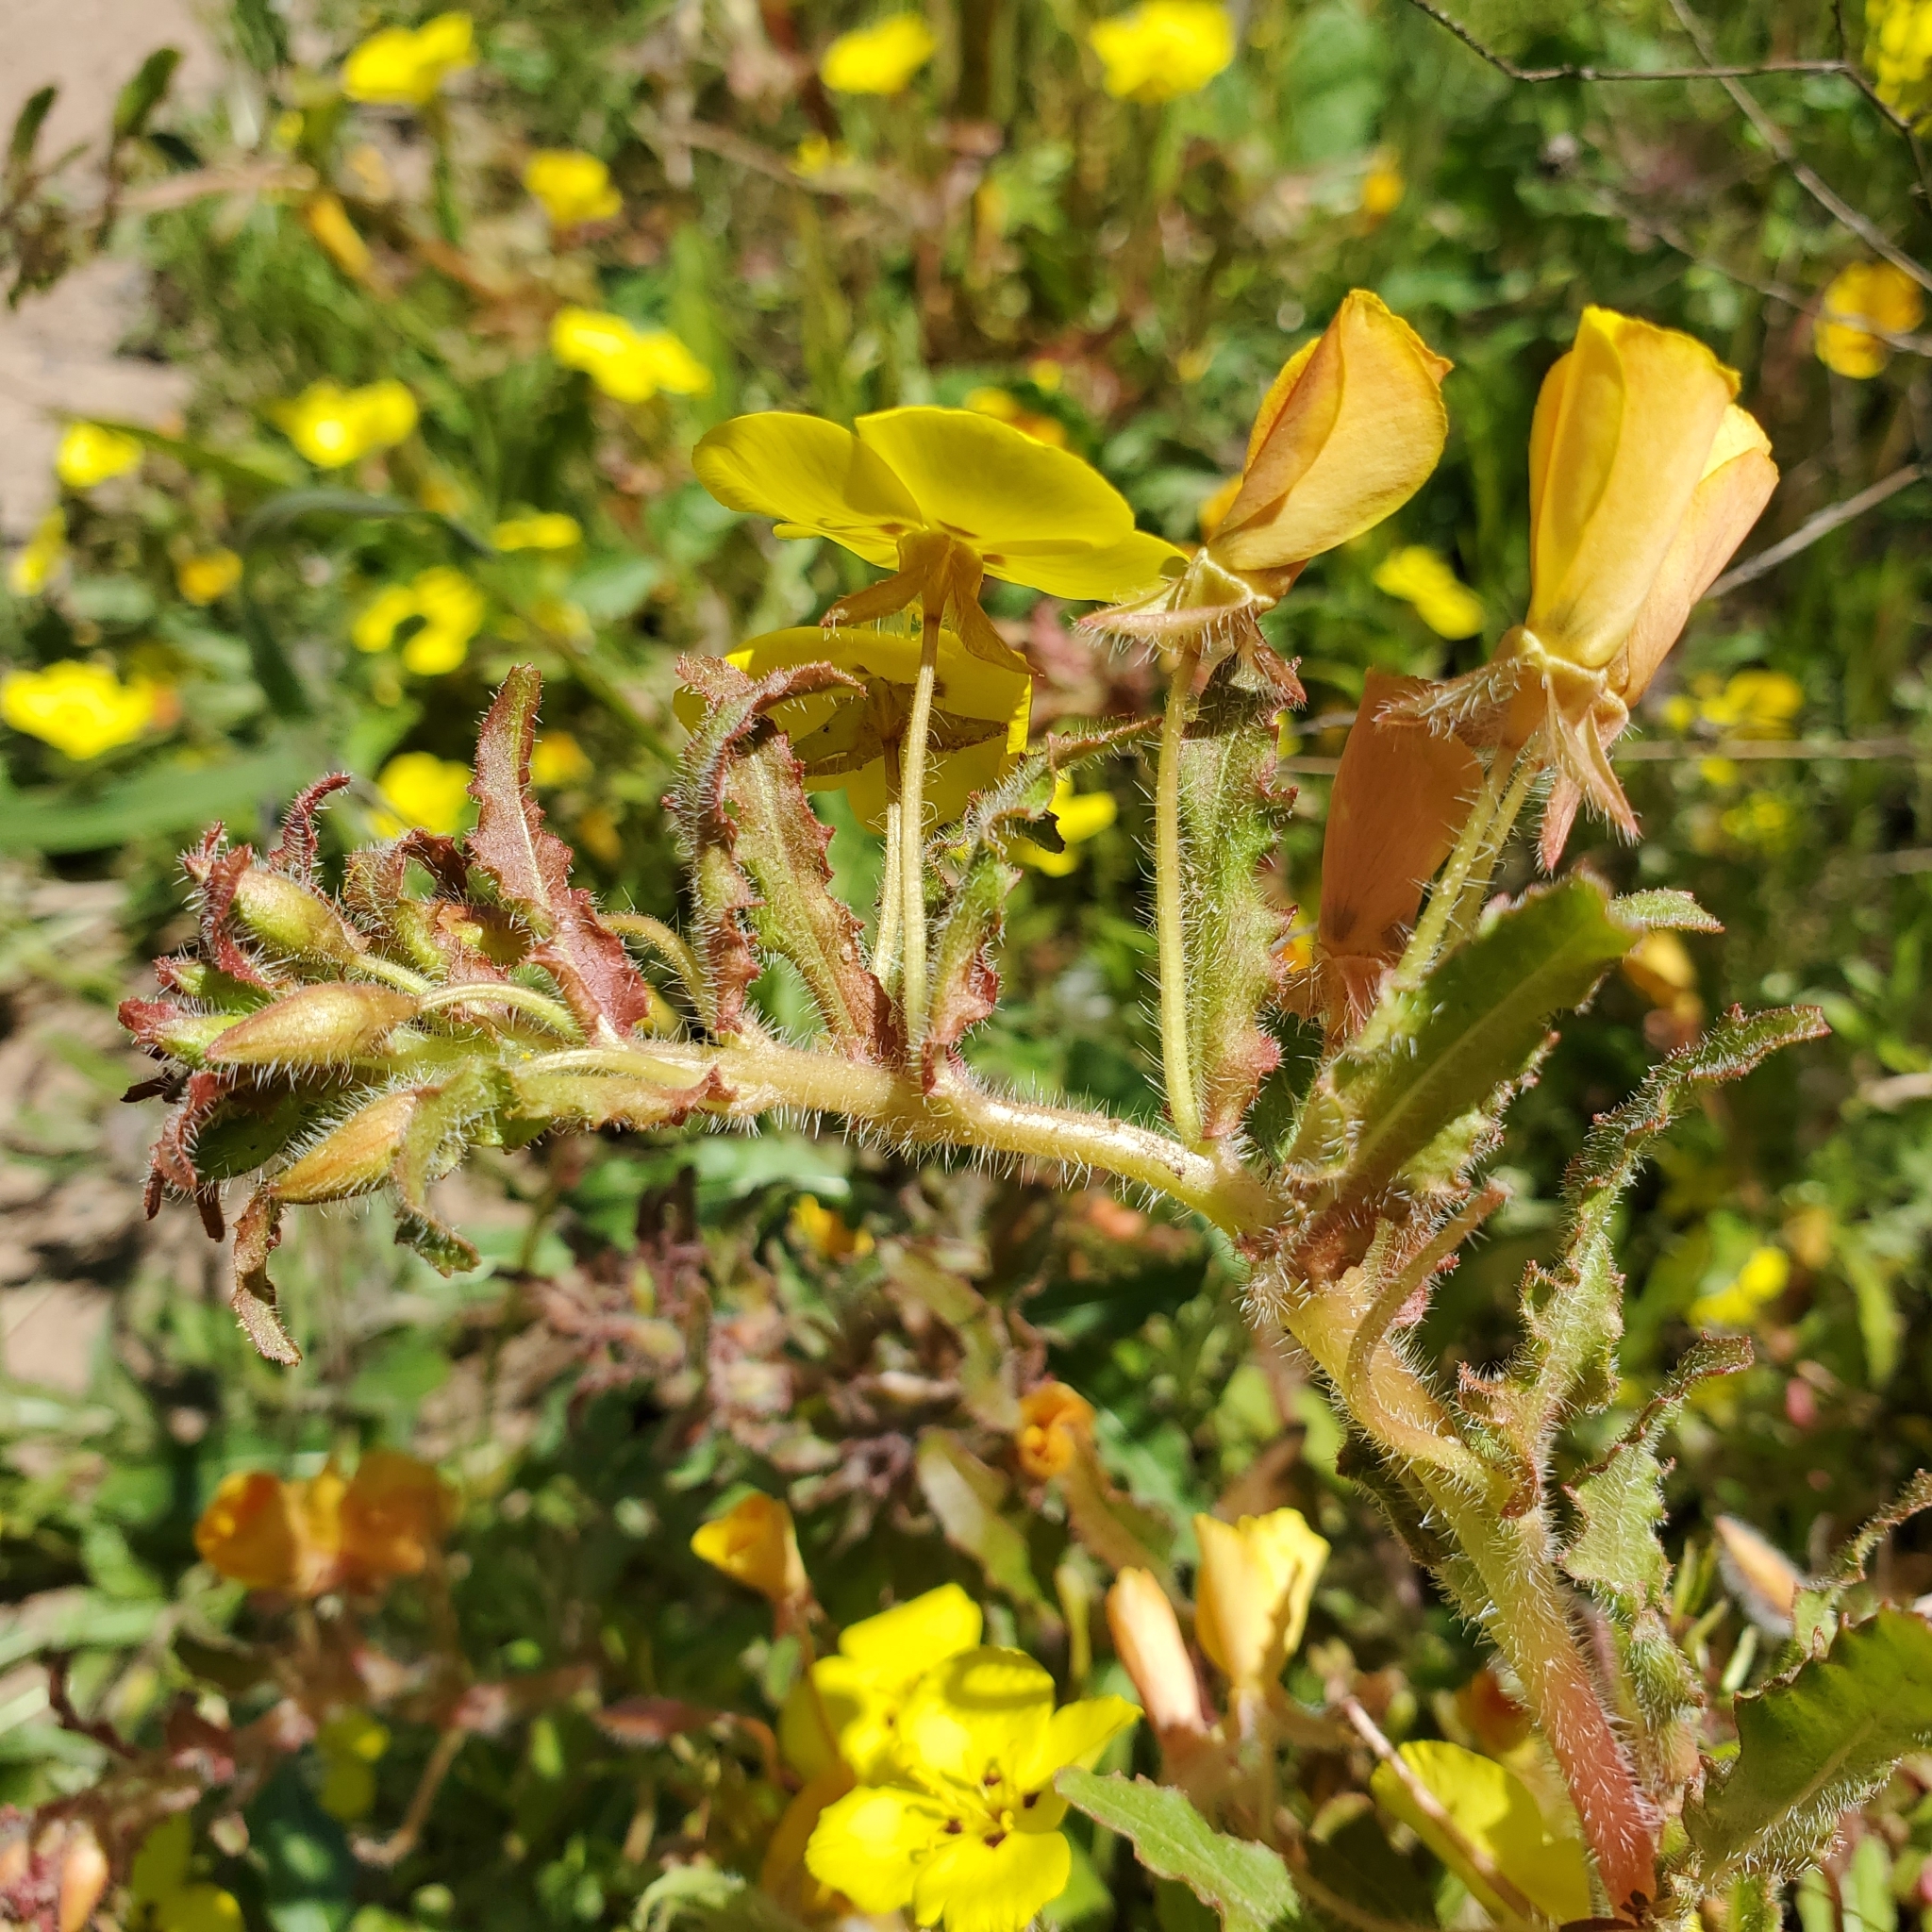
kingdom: Plantae
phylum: Tracheophyta
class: Magnoliopsida
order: Myrtales
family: Onagraceae
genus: Camissoniopsis
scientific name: Camissoniopsis bistorta
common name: Southern suncup
